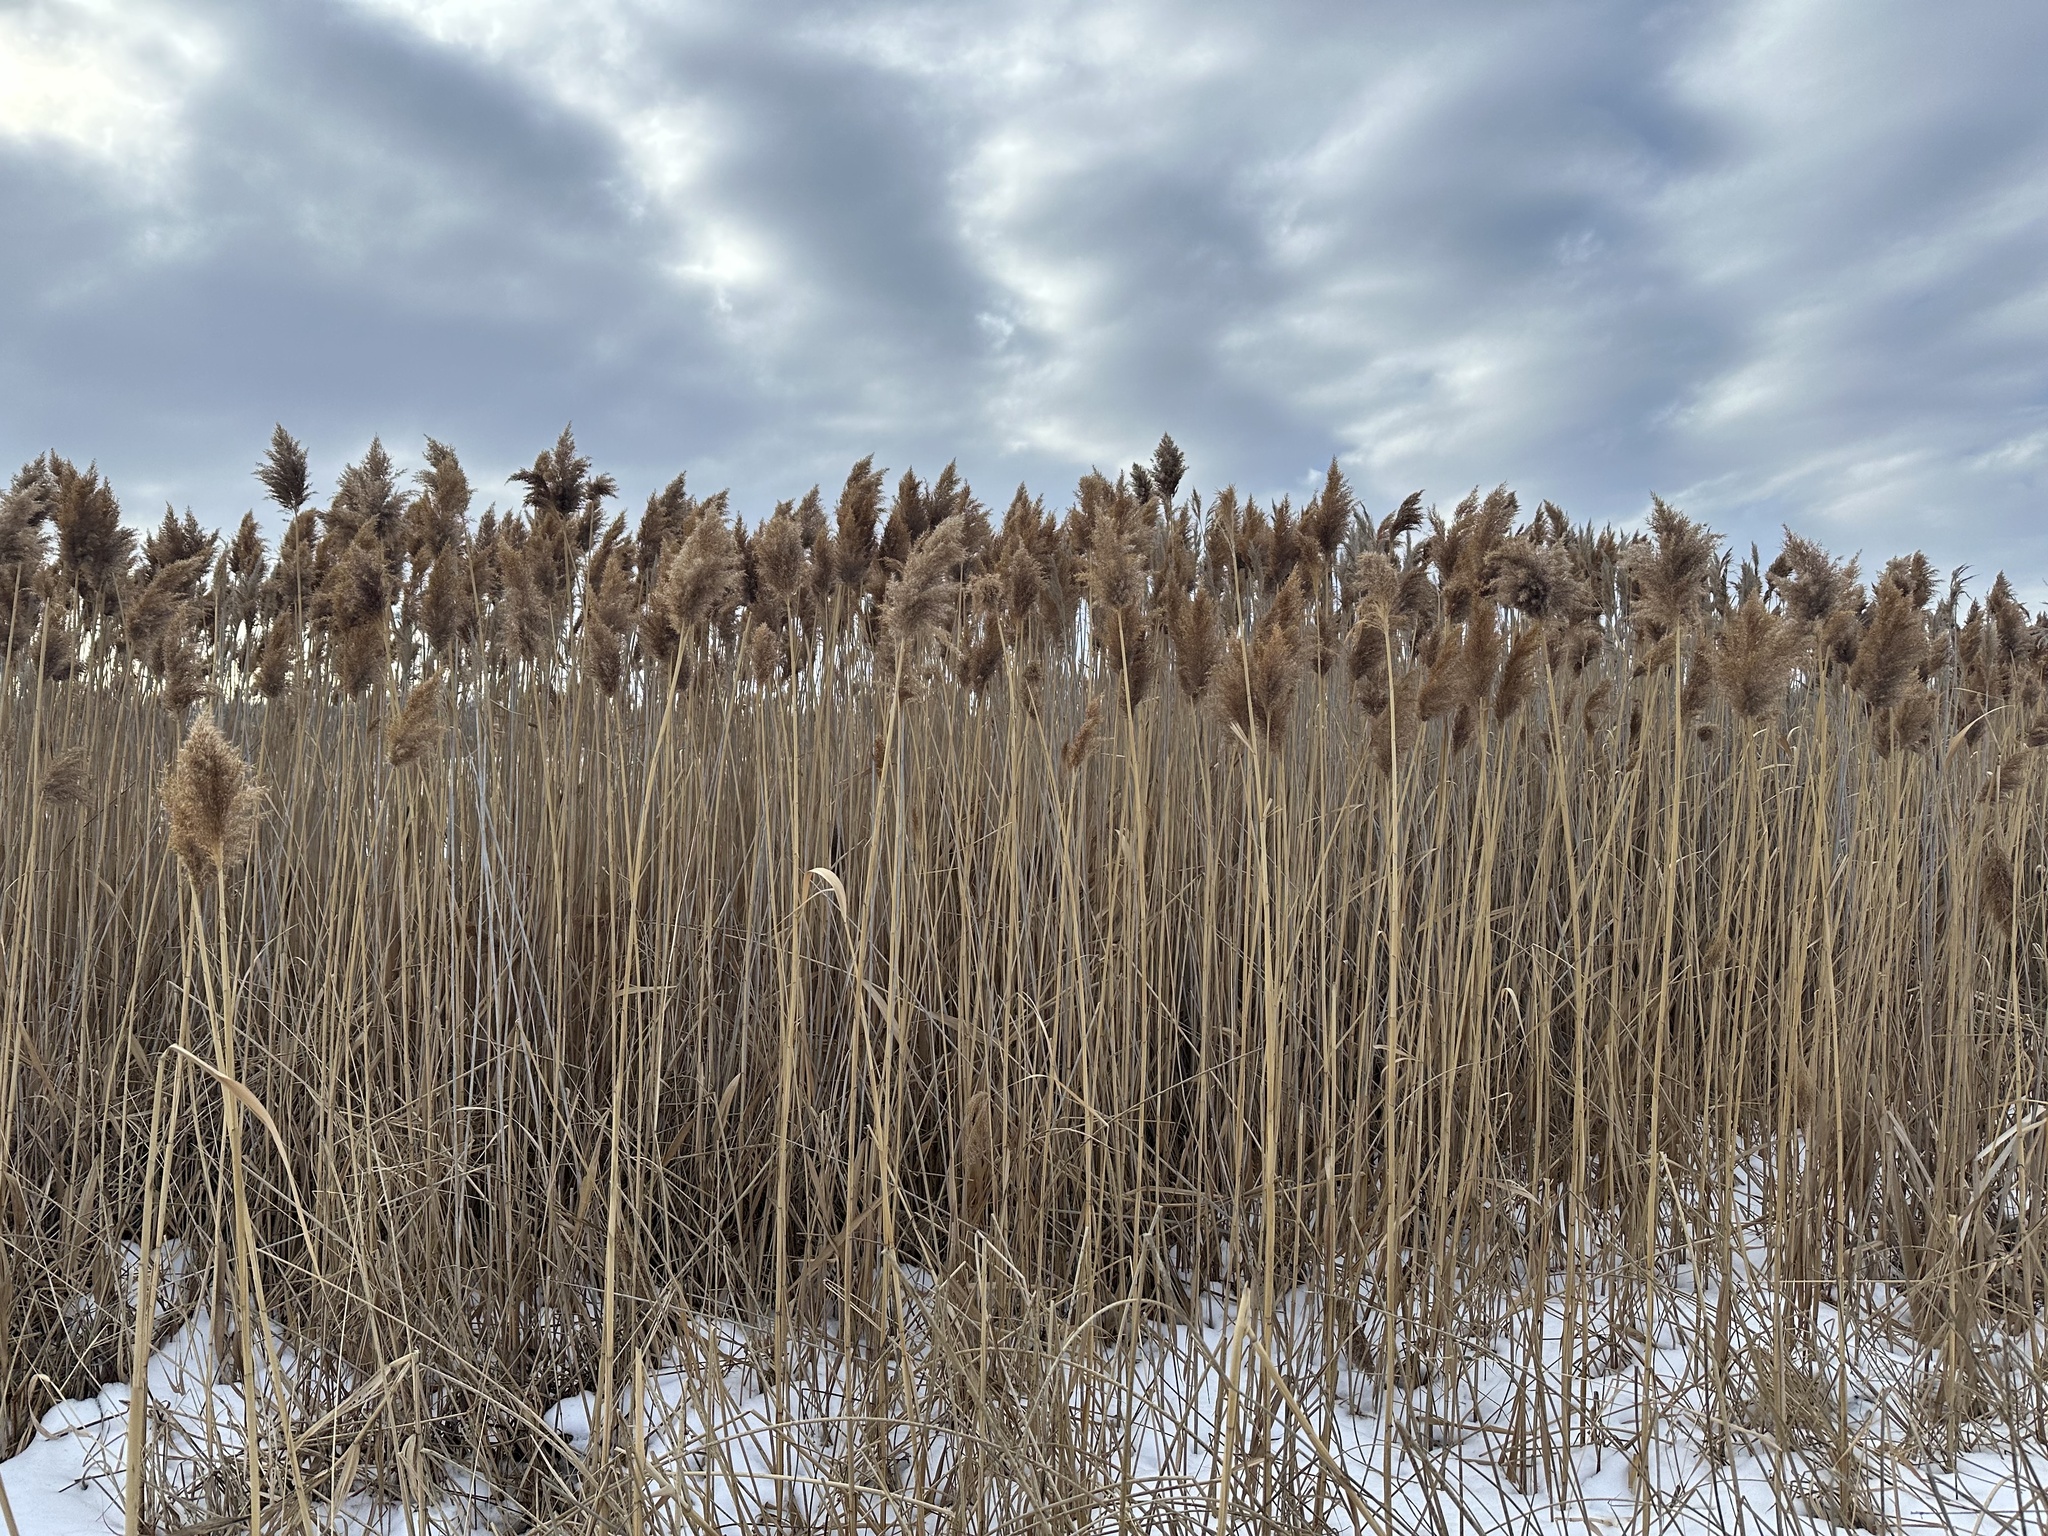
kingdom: Plantae
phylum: Tracheophyta
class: Liliopsida
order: Poales
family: Poaceae
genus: Phragmites
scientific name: Phragmites australis
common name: Common reed
